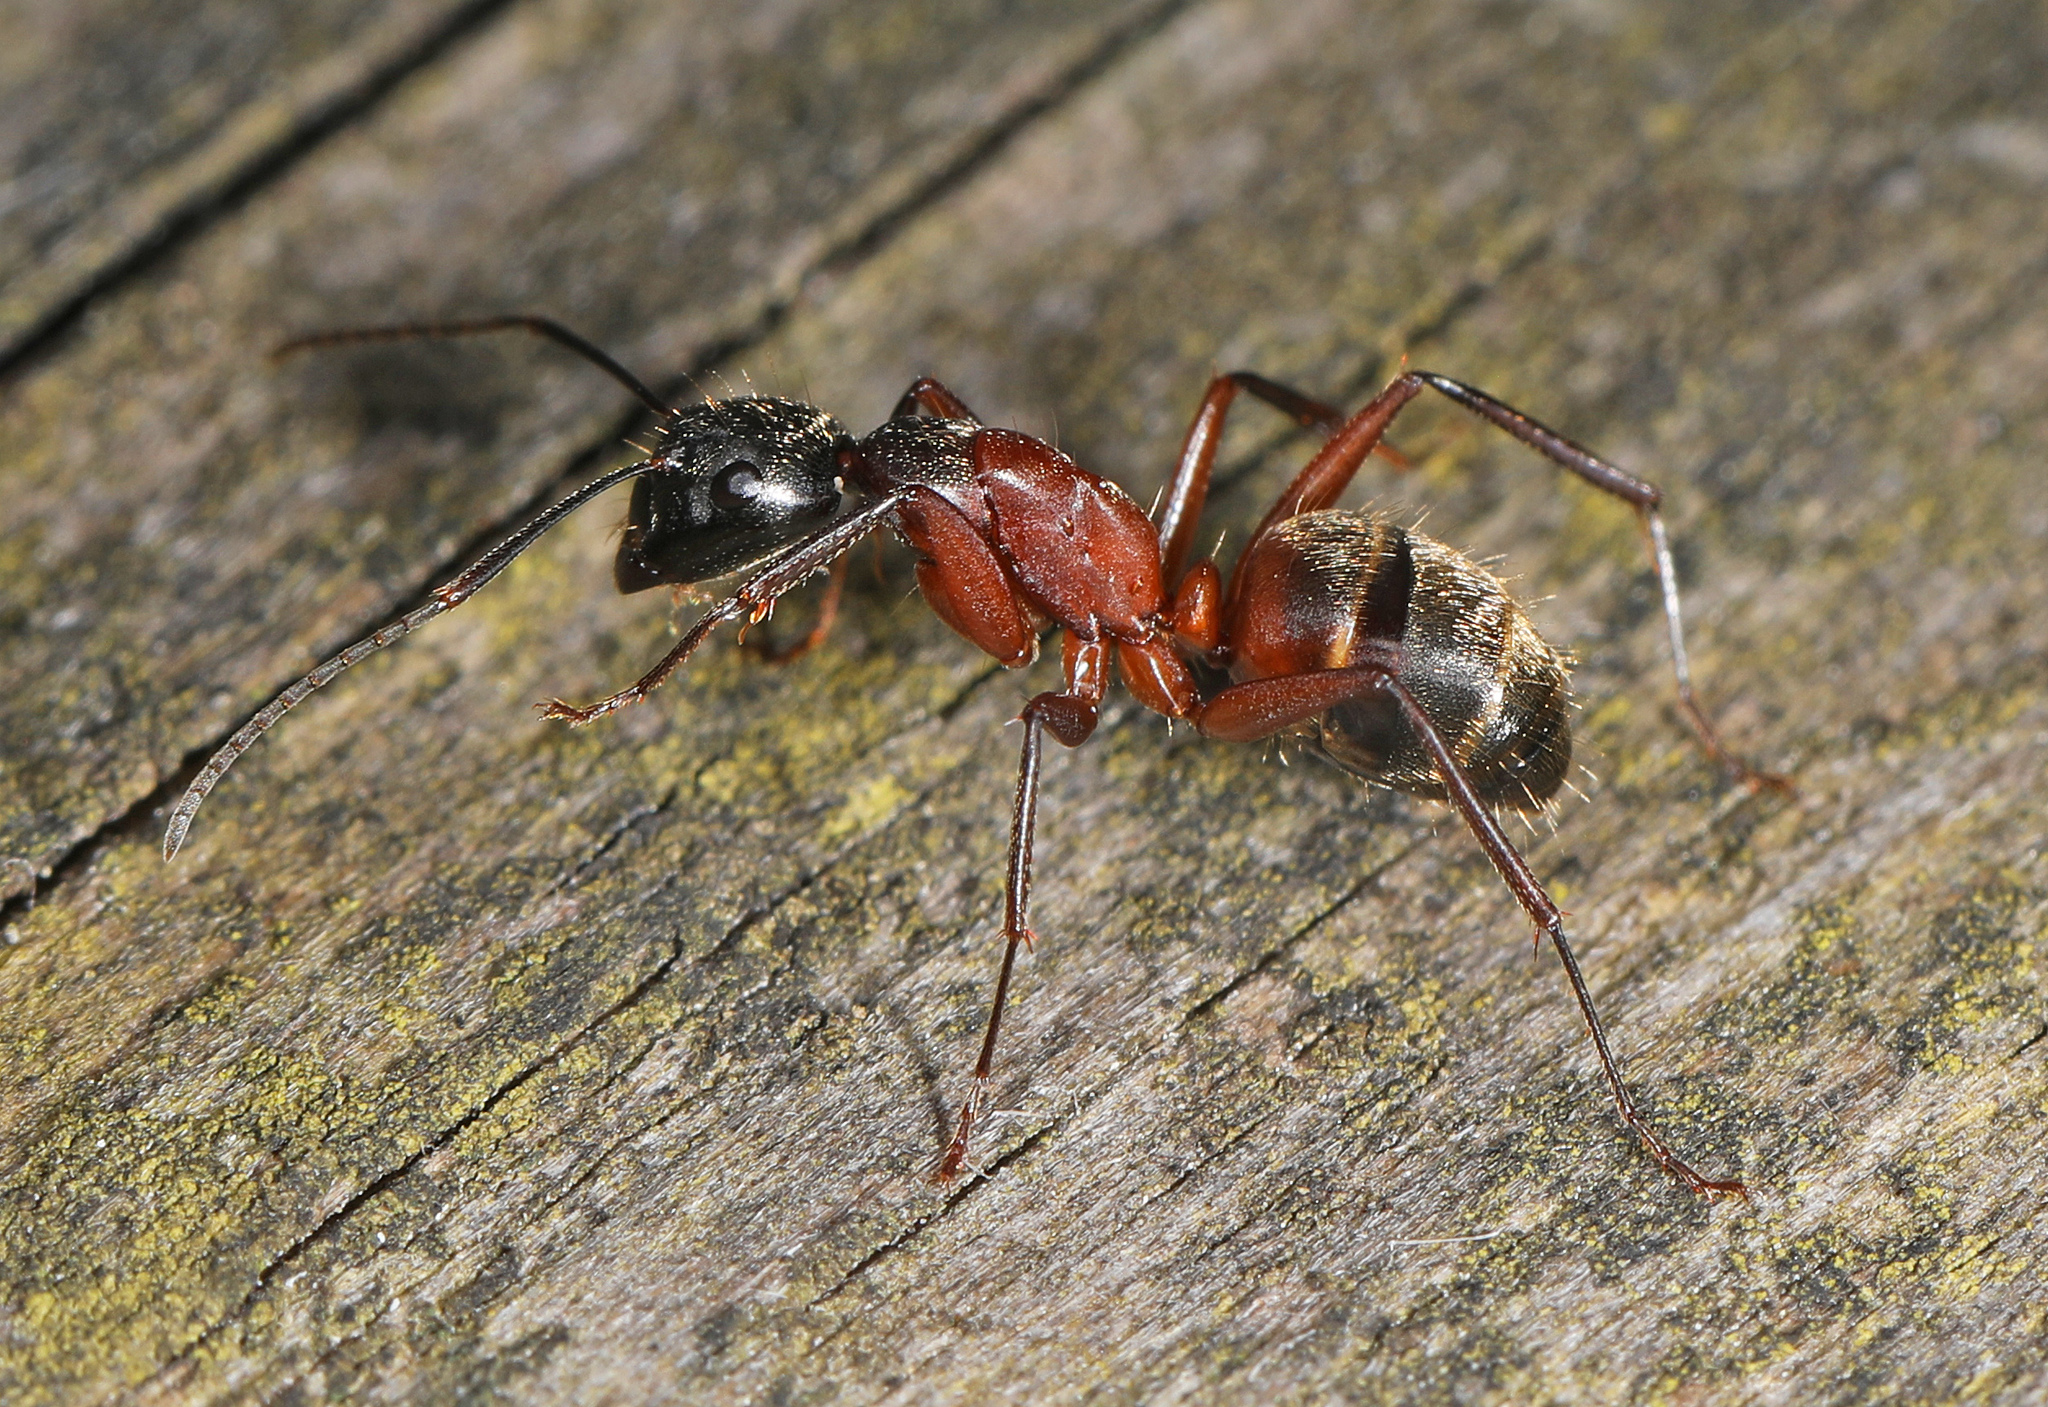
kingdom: Animalia
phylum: Arthropoda
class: Insecta
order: Hymenoptera
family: Formicidae
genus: Camponotus
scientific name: Camponotus chromaiodes
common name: Red carpenter ant
